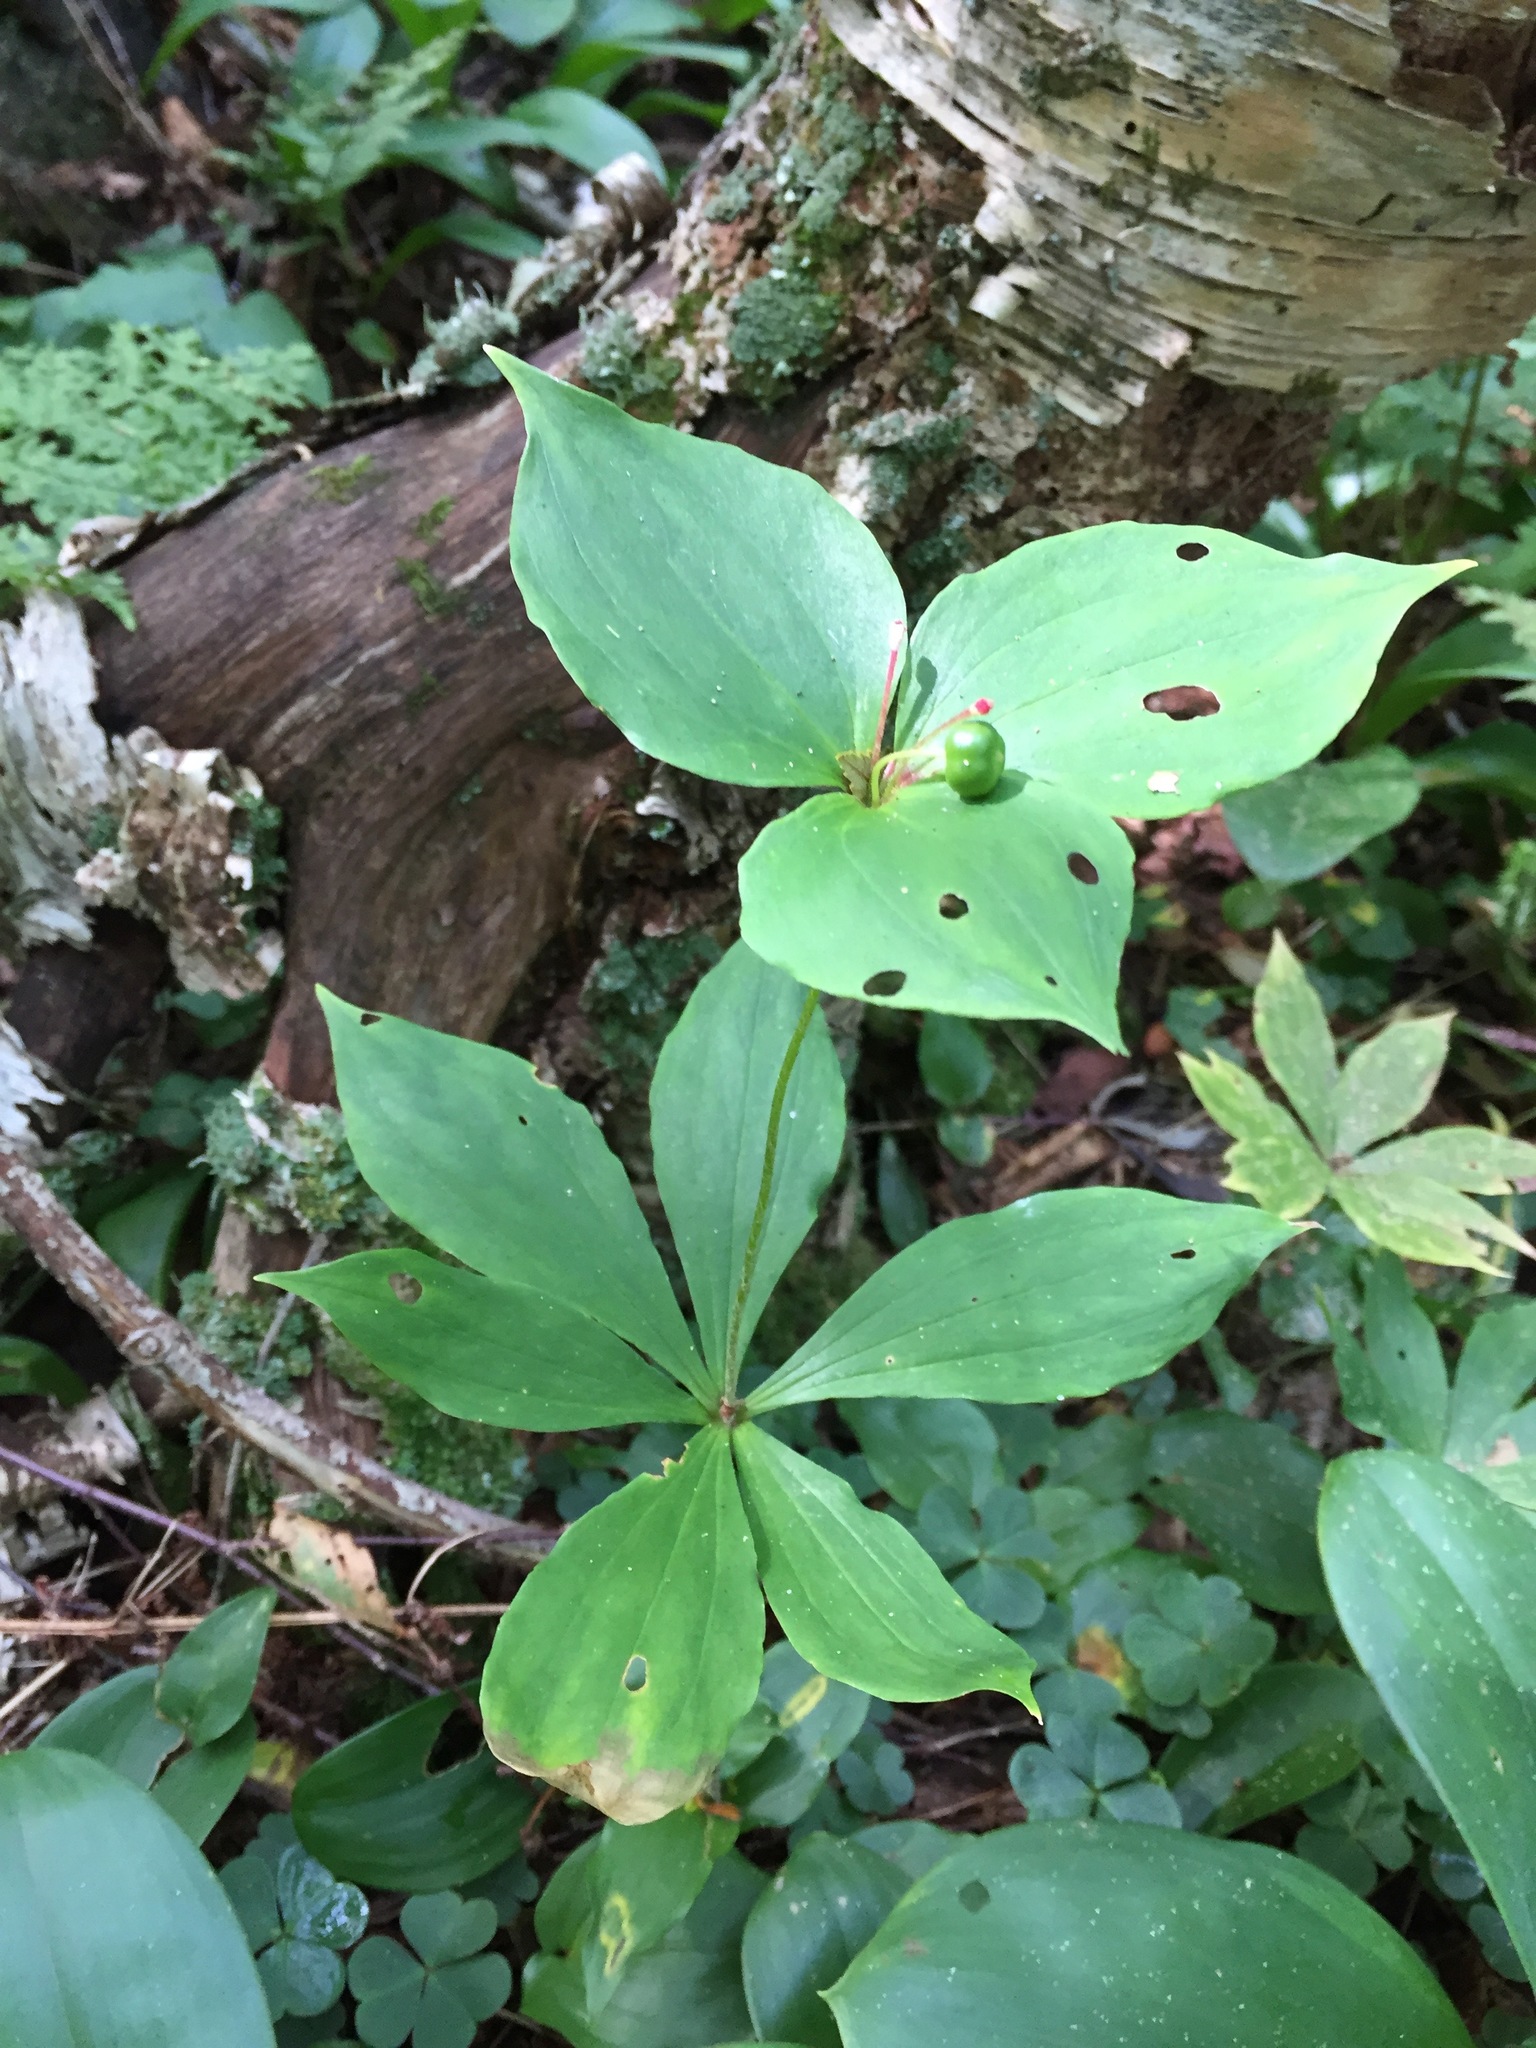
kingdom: Plantae
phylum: Tracheophyta
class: Liliopsida
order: Liliales
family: Liliaceae
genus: Medeola
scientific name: Medeola virginiana
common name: Indian cucumber-root
